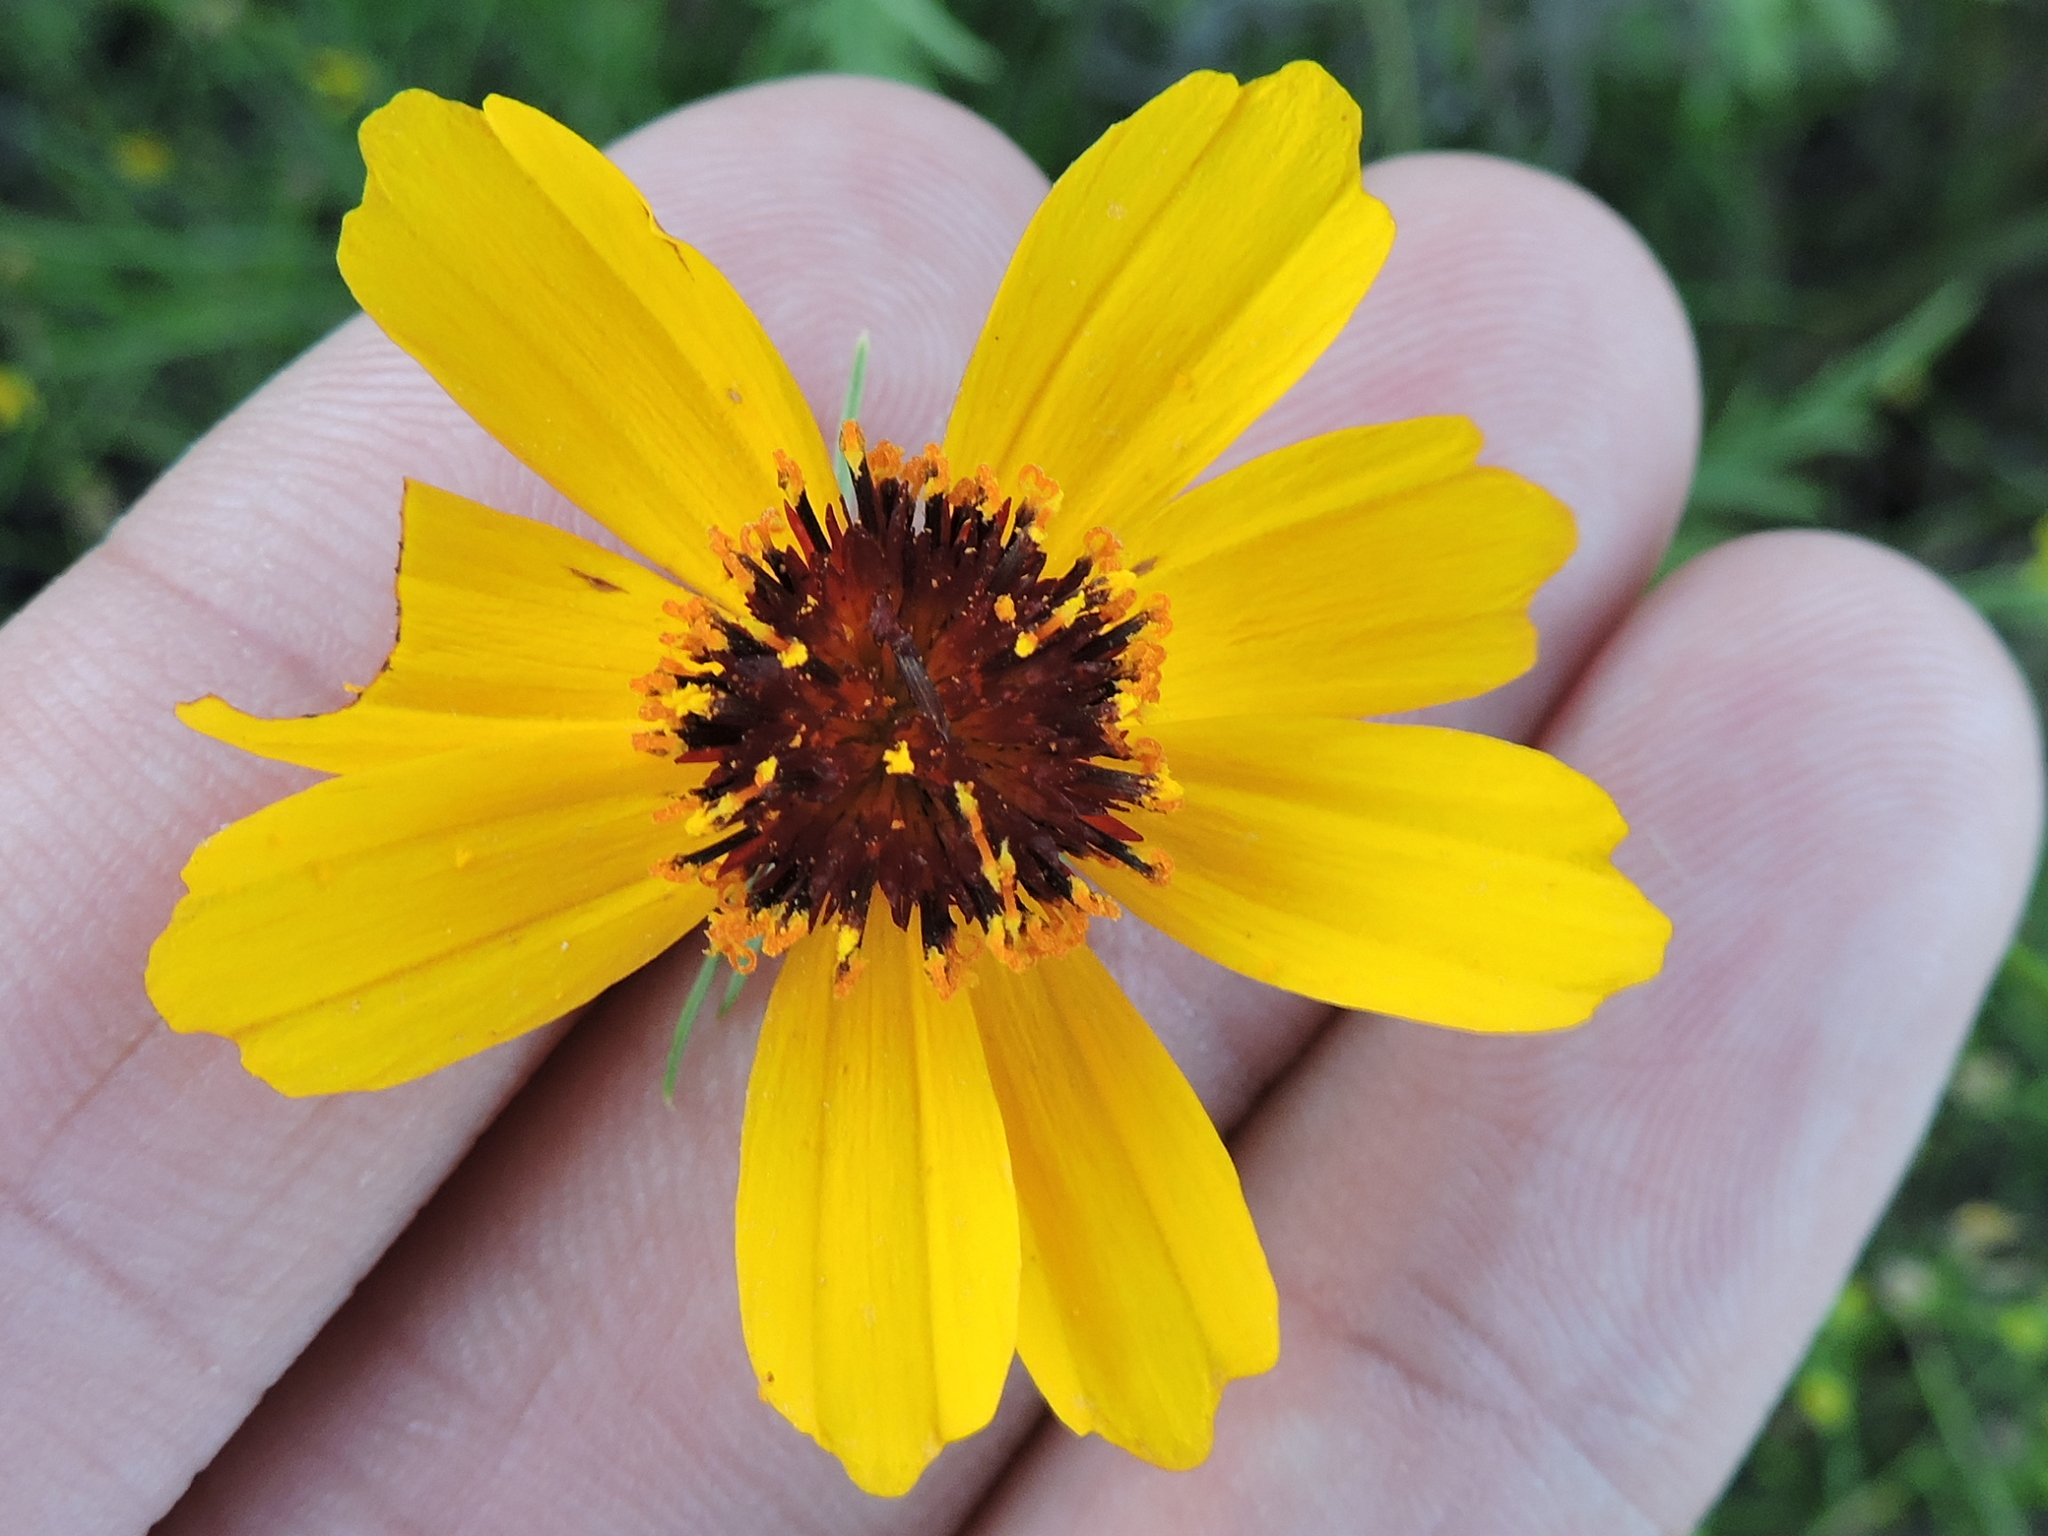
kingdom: Plantae
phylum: Tracheophyta
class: Magnoliopsida
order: Asterales
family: Asteraceae
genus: Thelesperma
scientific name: Thelesperma filifolium
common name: Stiff greenthread
